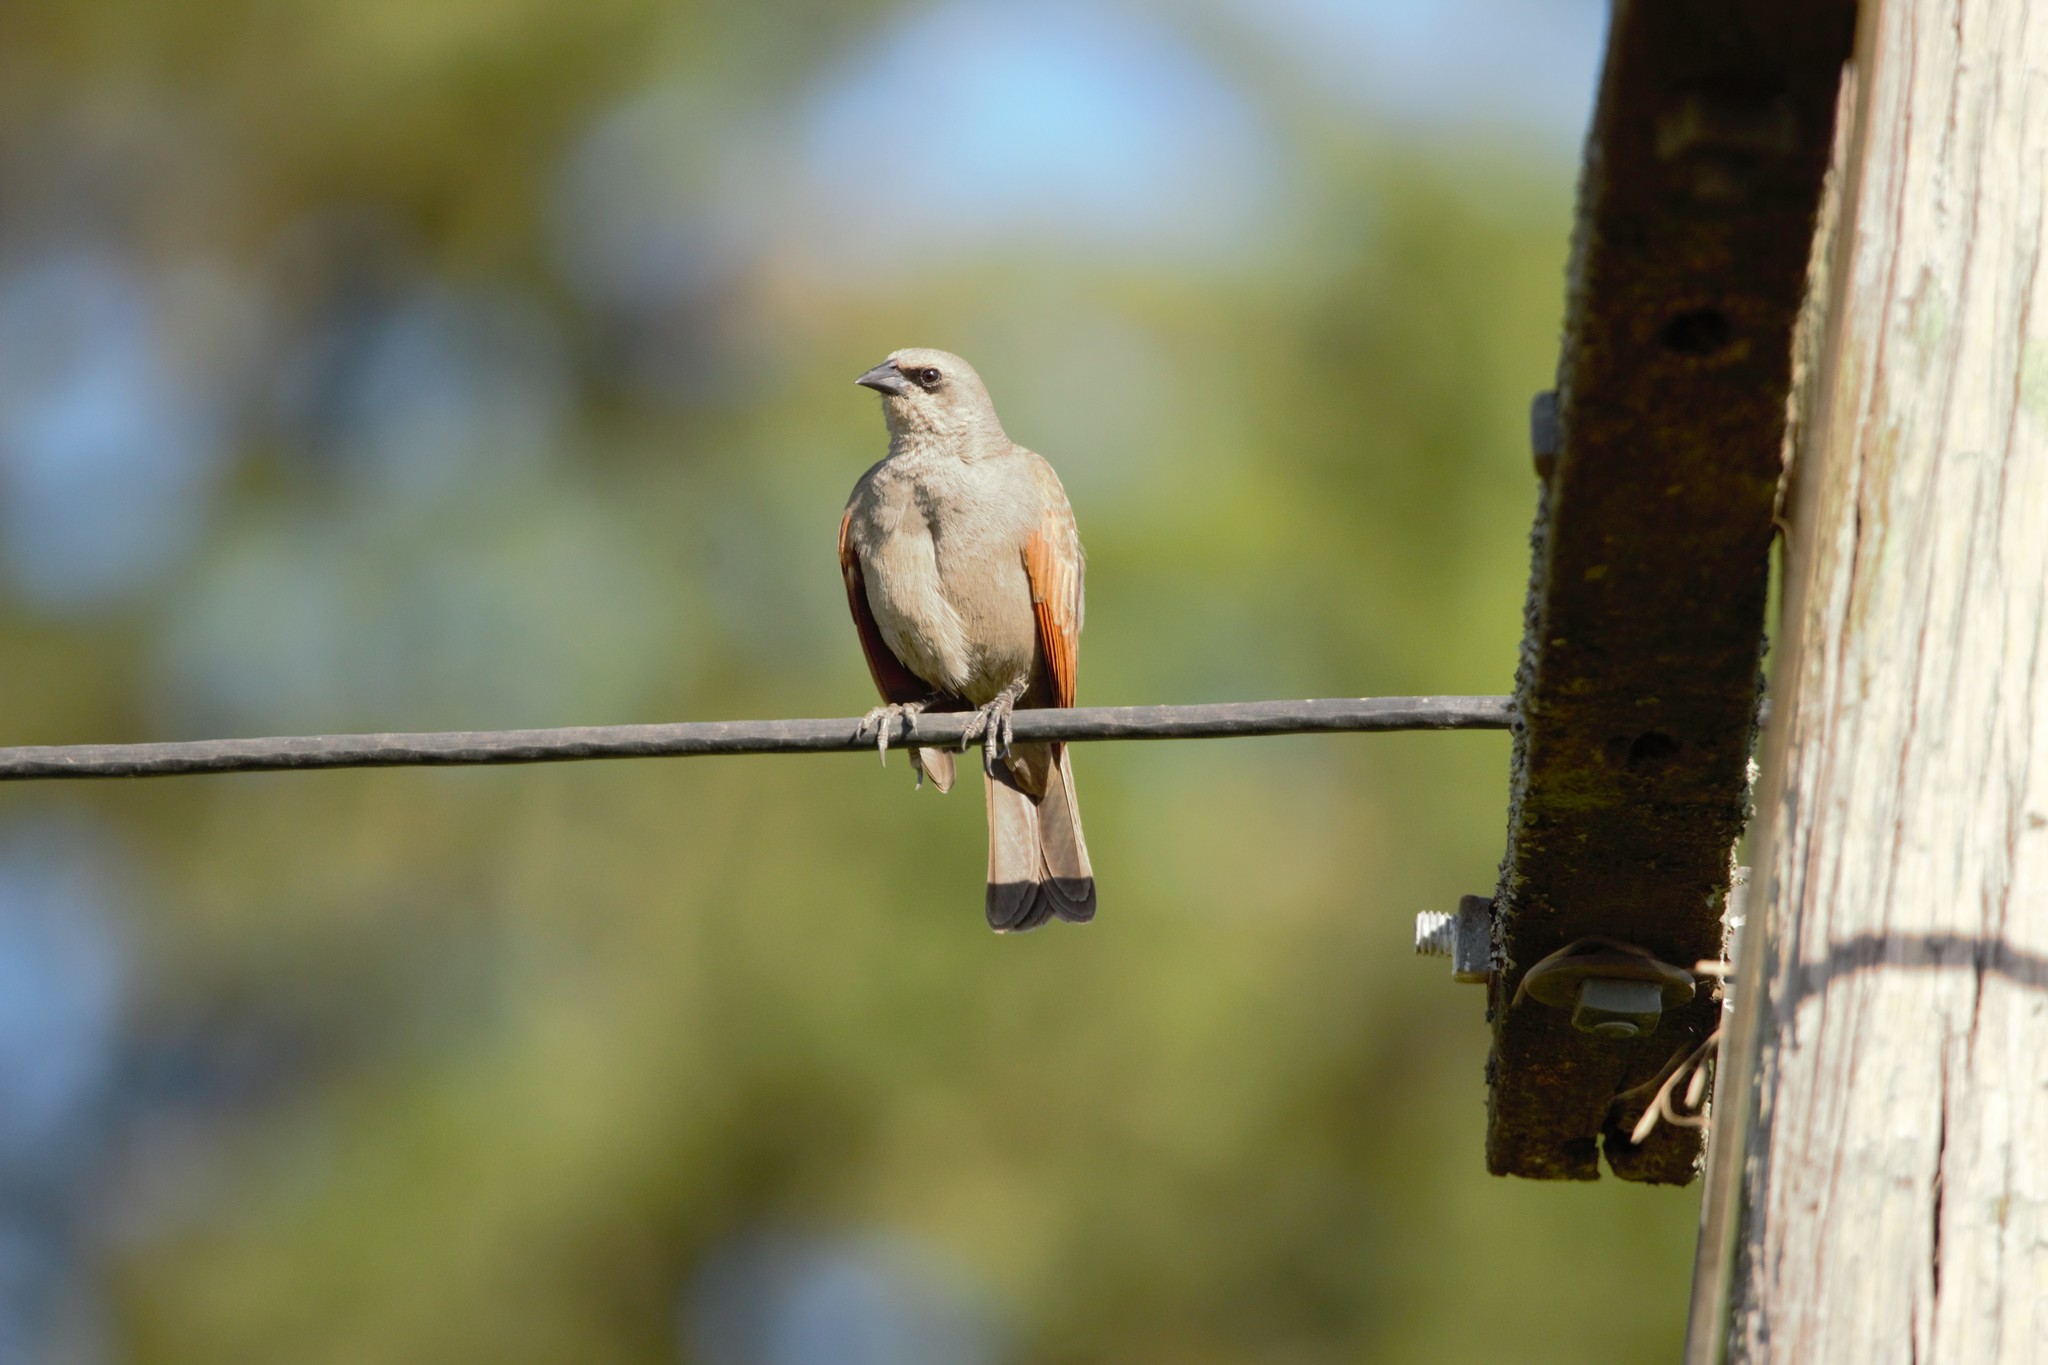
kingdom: Animalia
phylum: Chordata
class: Aves
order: Passeriformes
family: Icteridae
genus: Agelaioides
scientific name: Agelaioides badius
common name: Baywing
